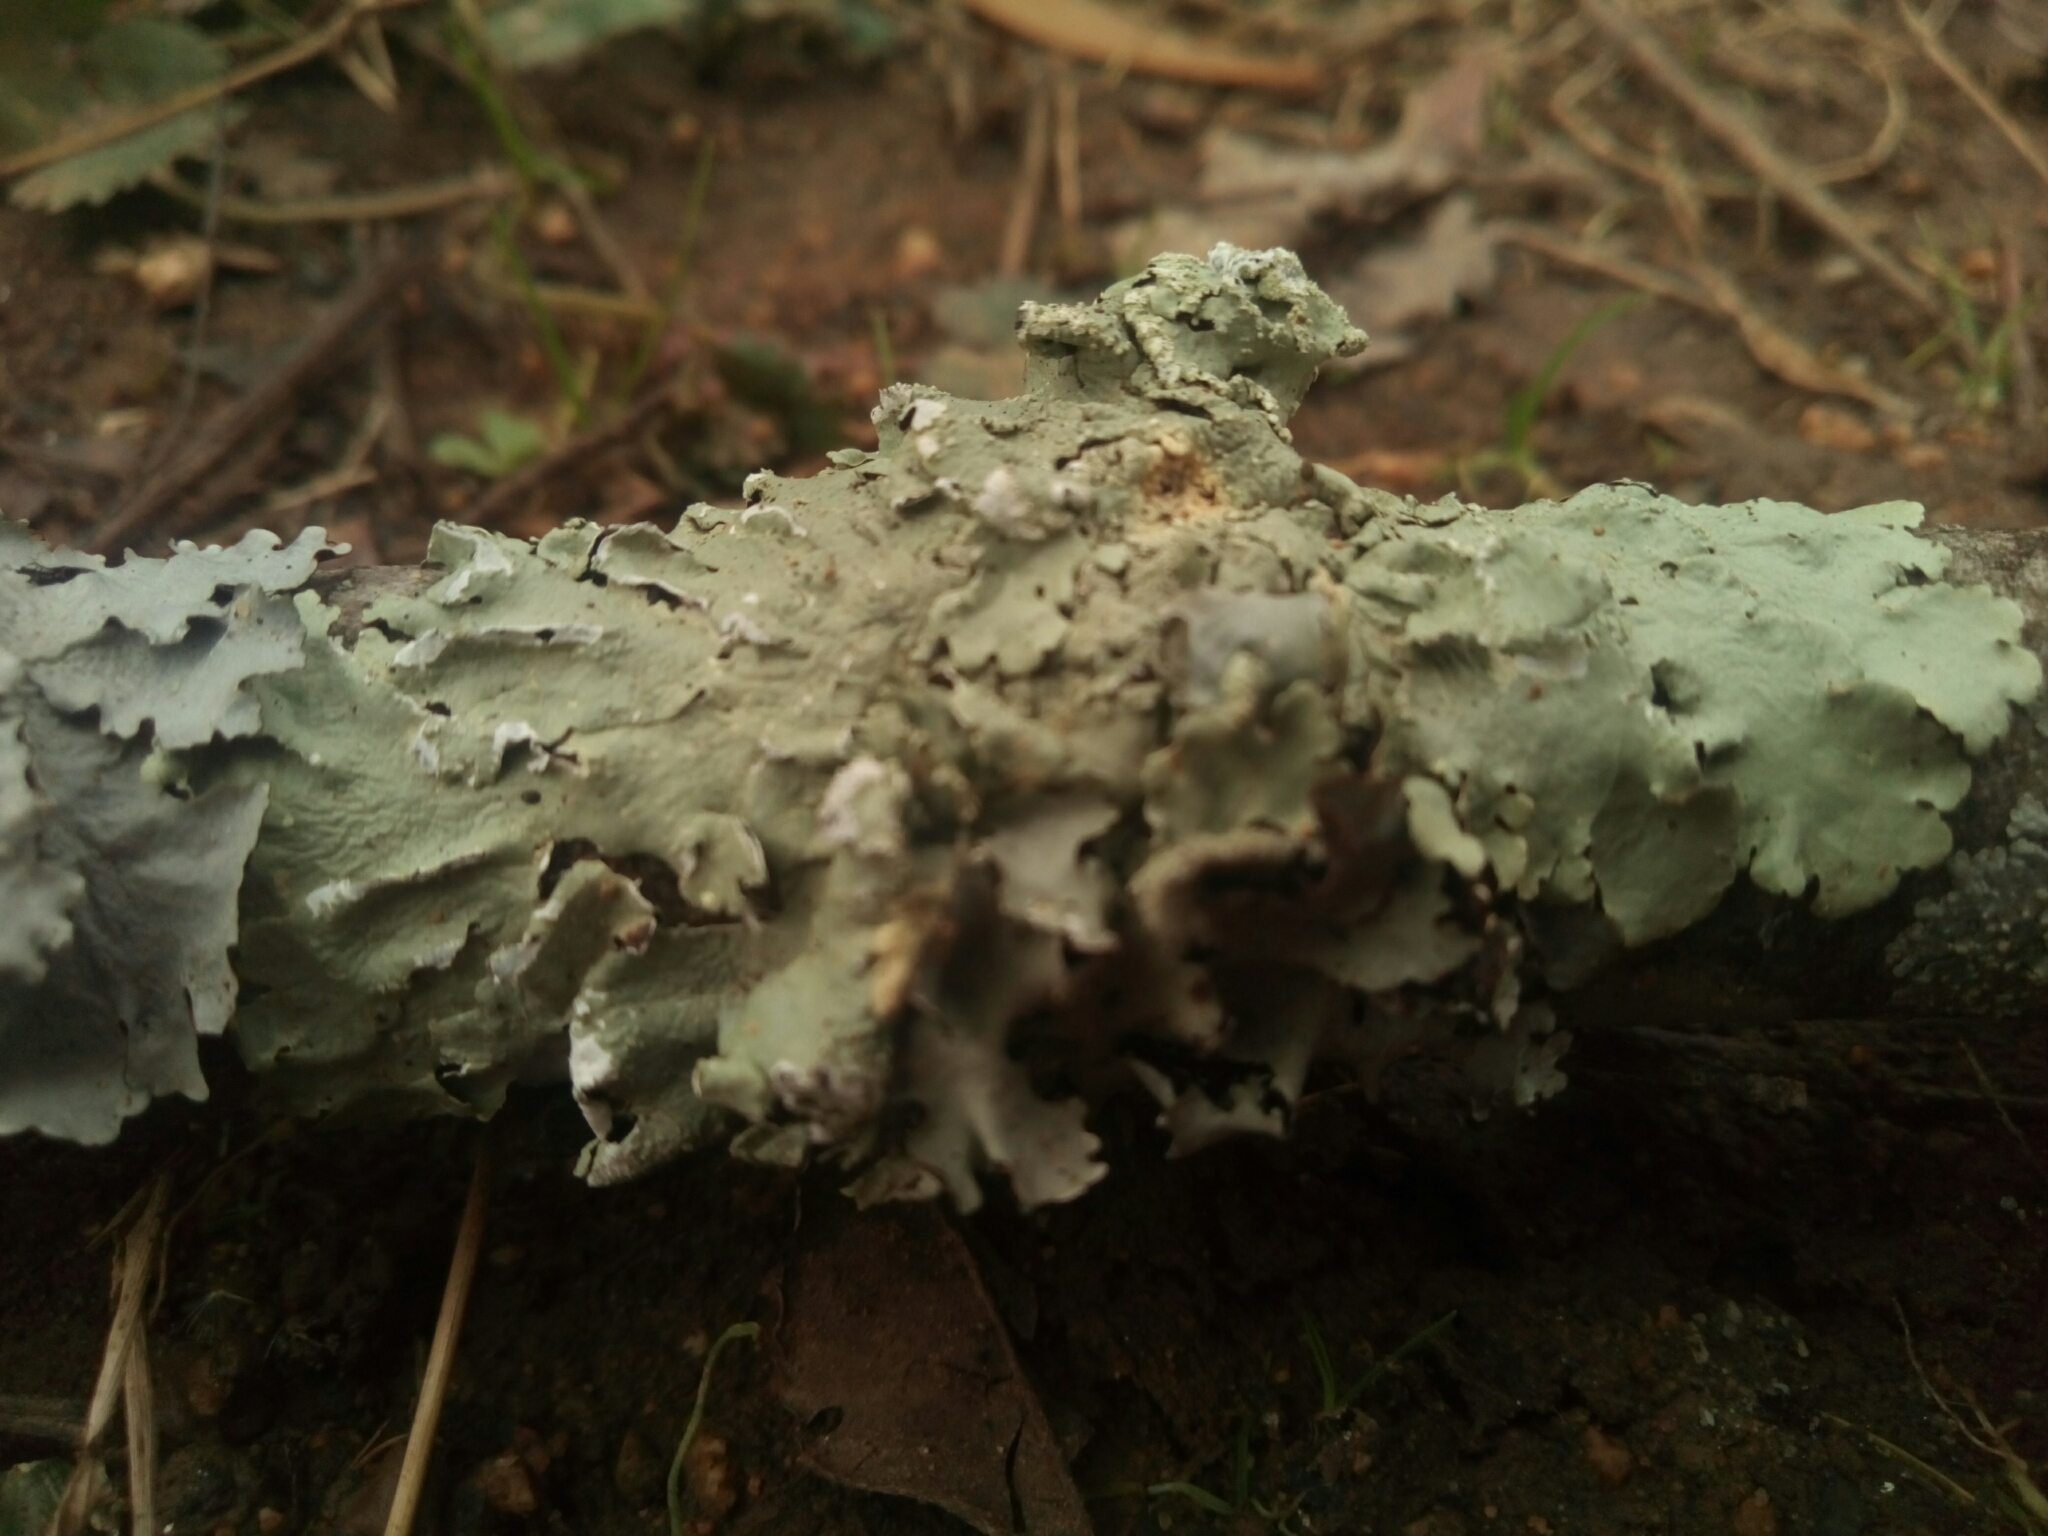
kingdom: Fungi
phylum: Ascomycota
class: Lecanoromycetes
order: Lecanorales
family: Parmeliaceae
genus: Flavoparmelia
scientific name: Flavoparmelia caperata
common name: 40-mile per hour lichen
